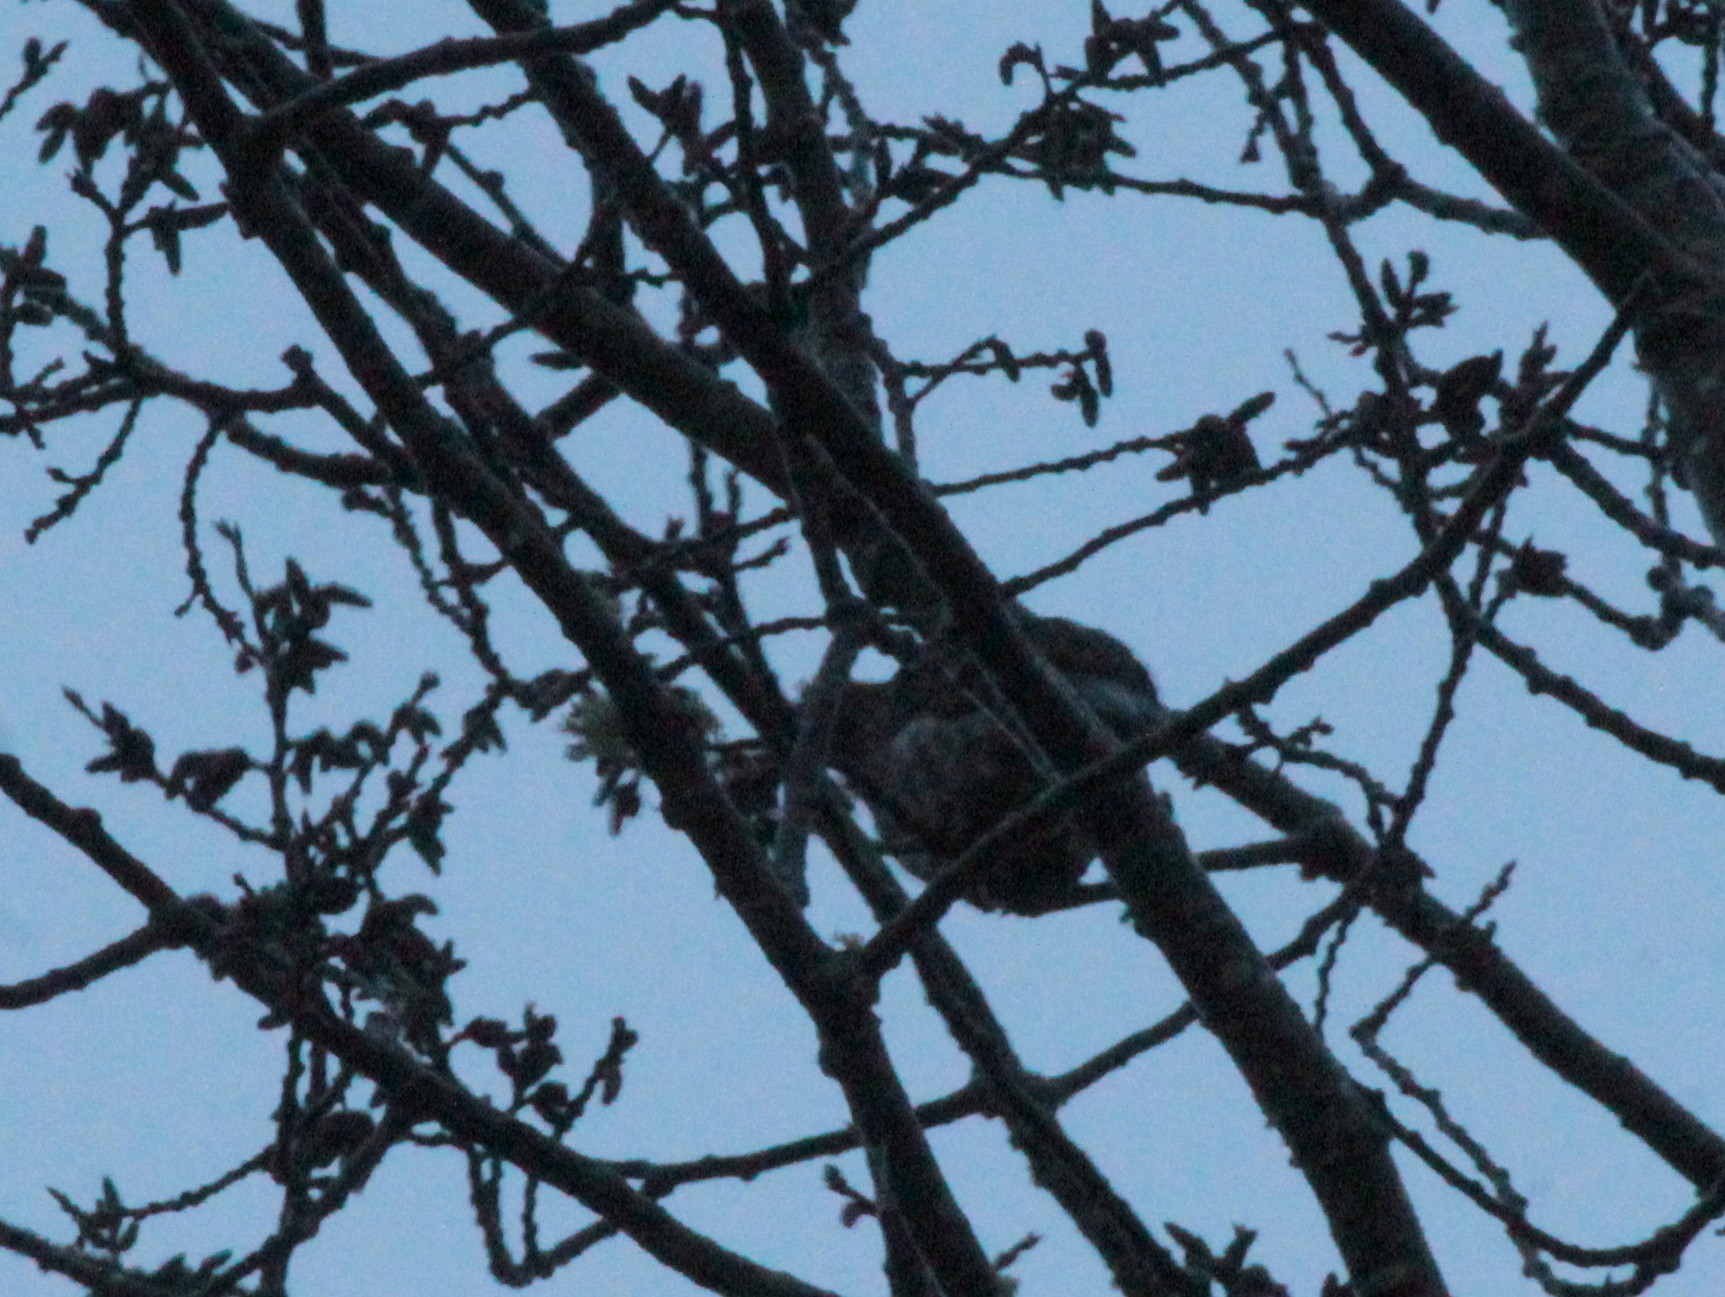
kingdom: Animalia
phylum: Chordata
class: Aves
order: Galliformes
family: Phasianidae
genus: Bonasa
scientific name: Bonasa umbellus
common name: Ruffed grouse
